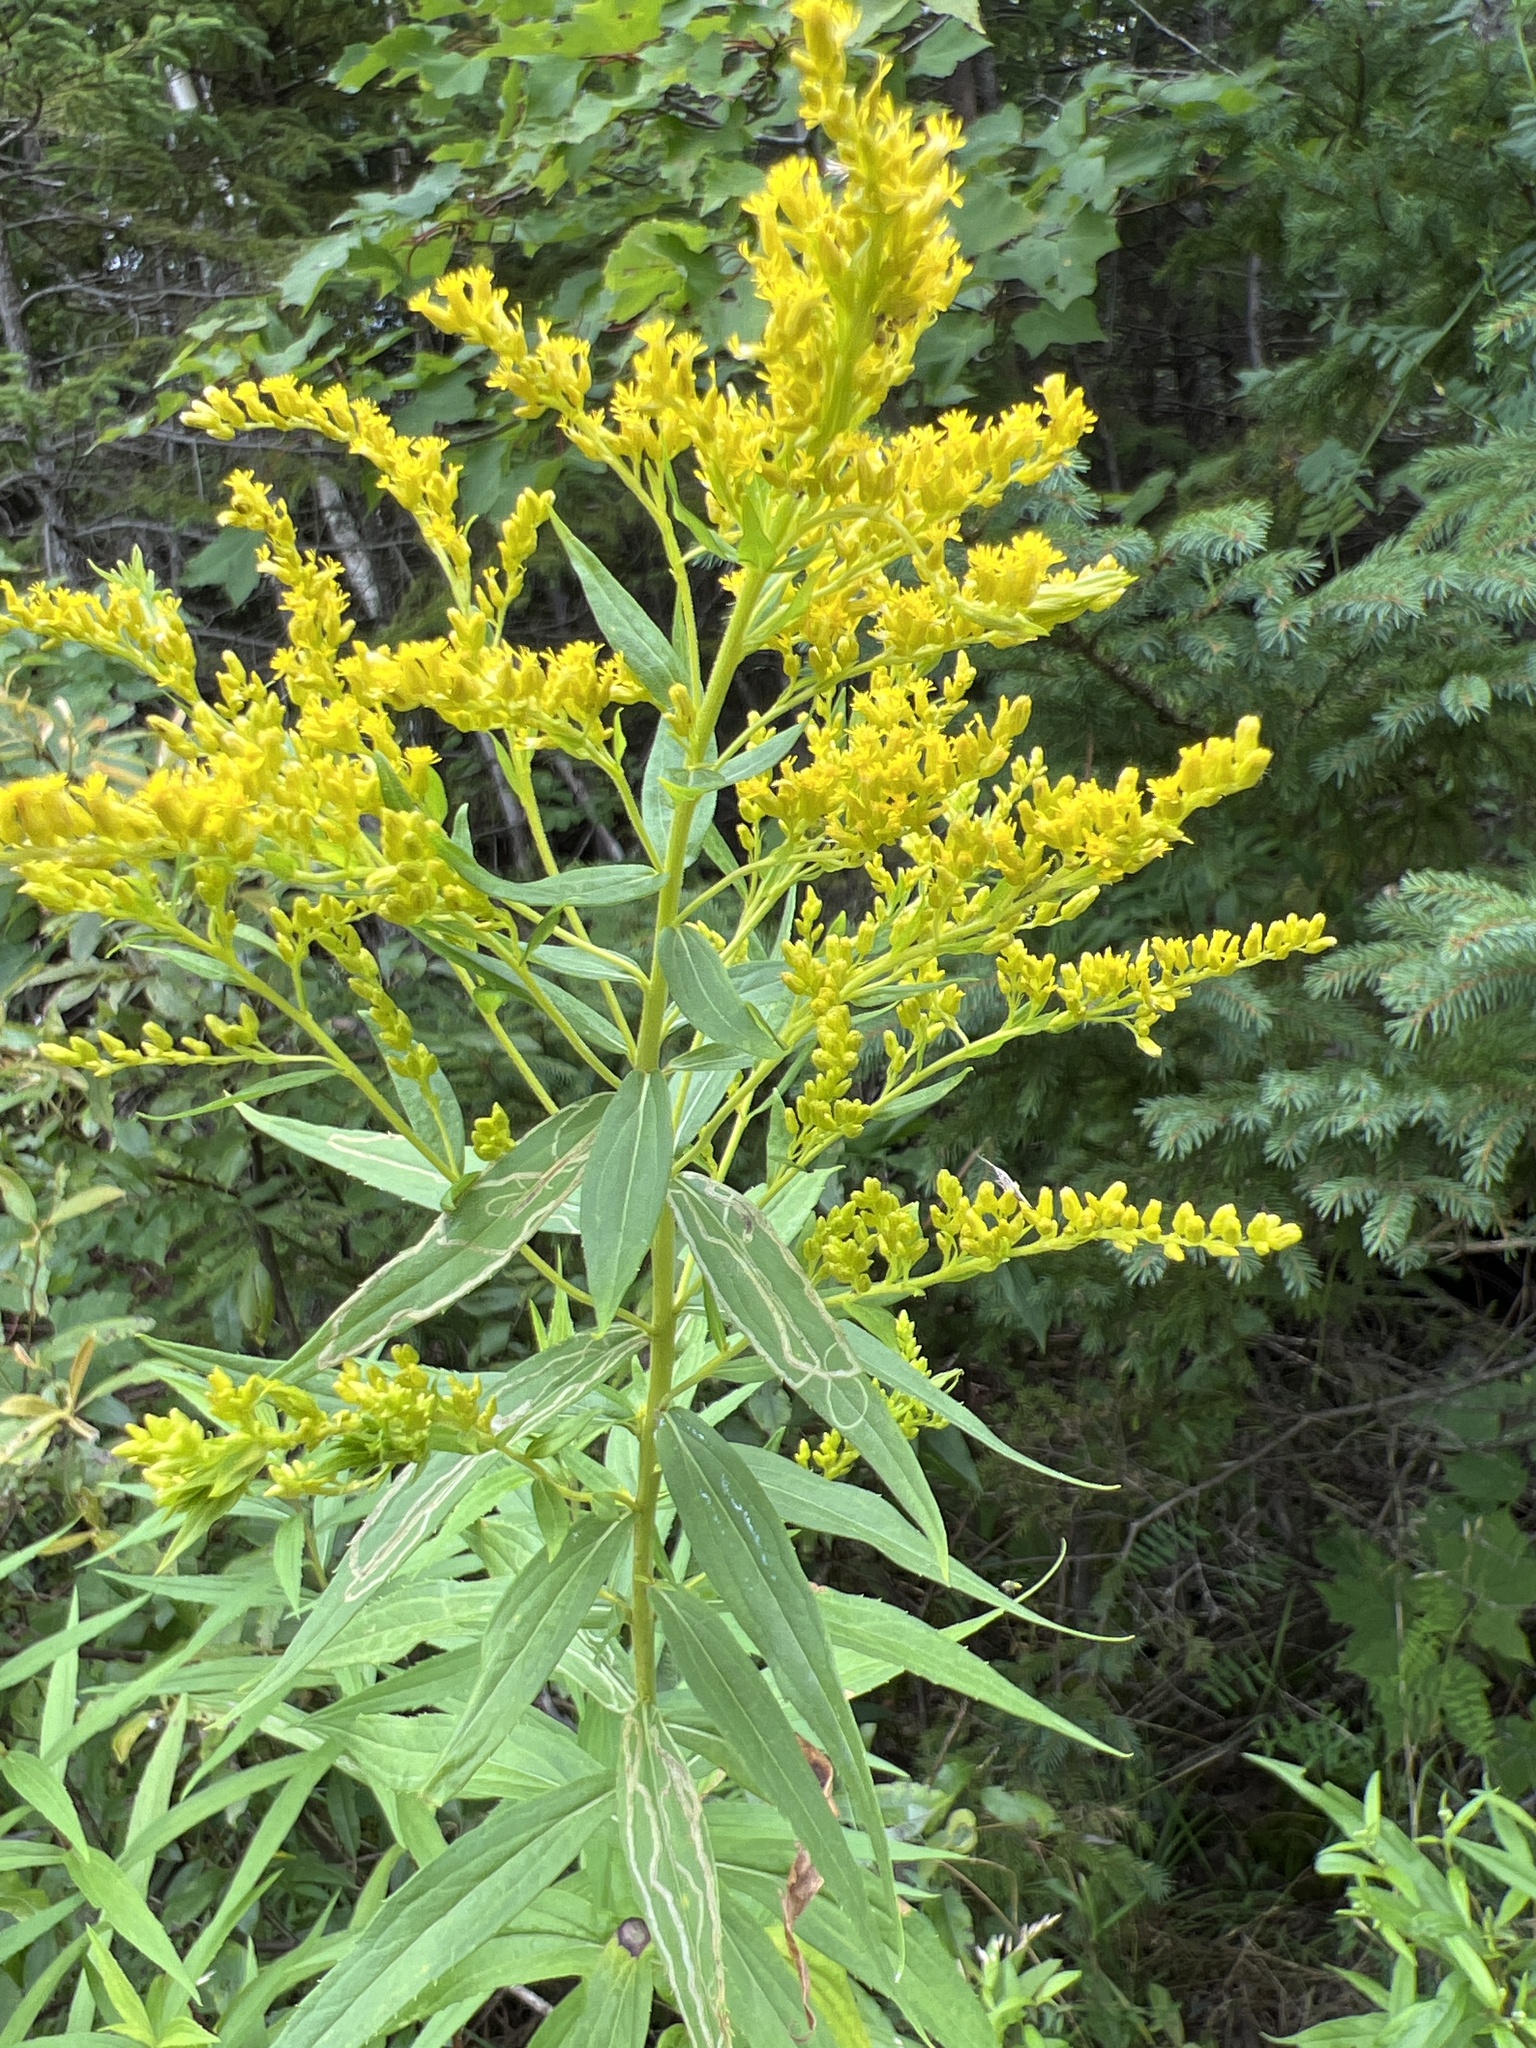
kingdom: Plantae
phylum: Tracheophyta
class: Magnoliopsida
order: Asterales
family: Asteraceae
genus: Solidago
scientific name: Solidago canadensis
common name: Canada goldenrod
